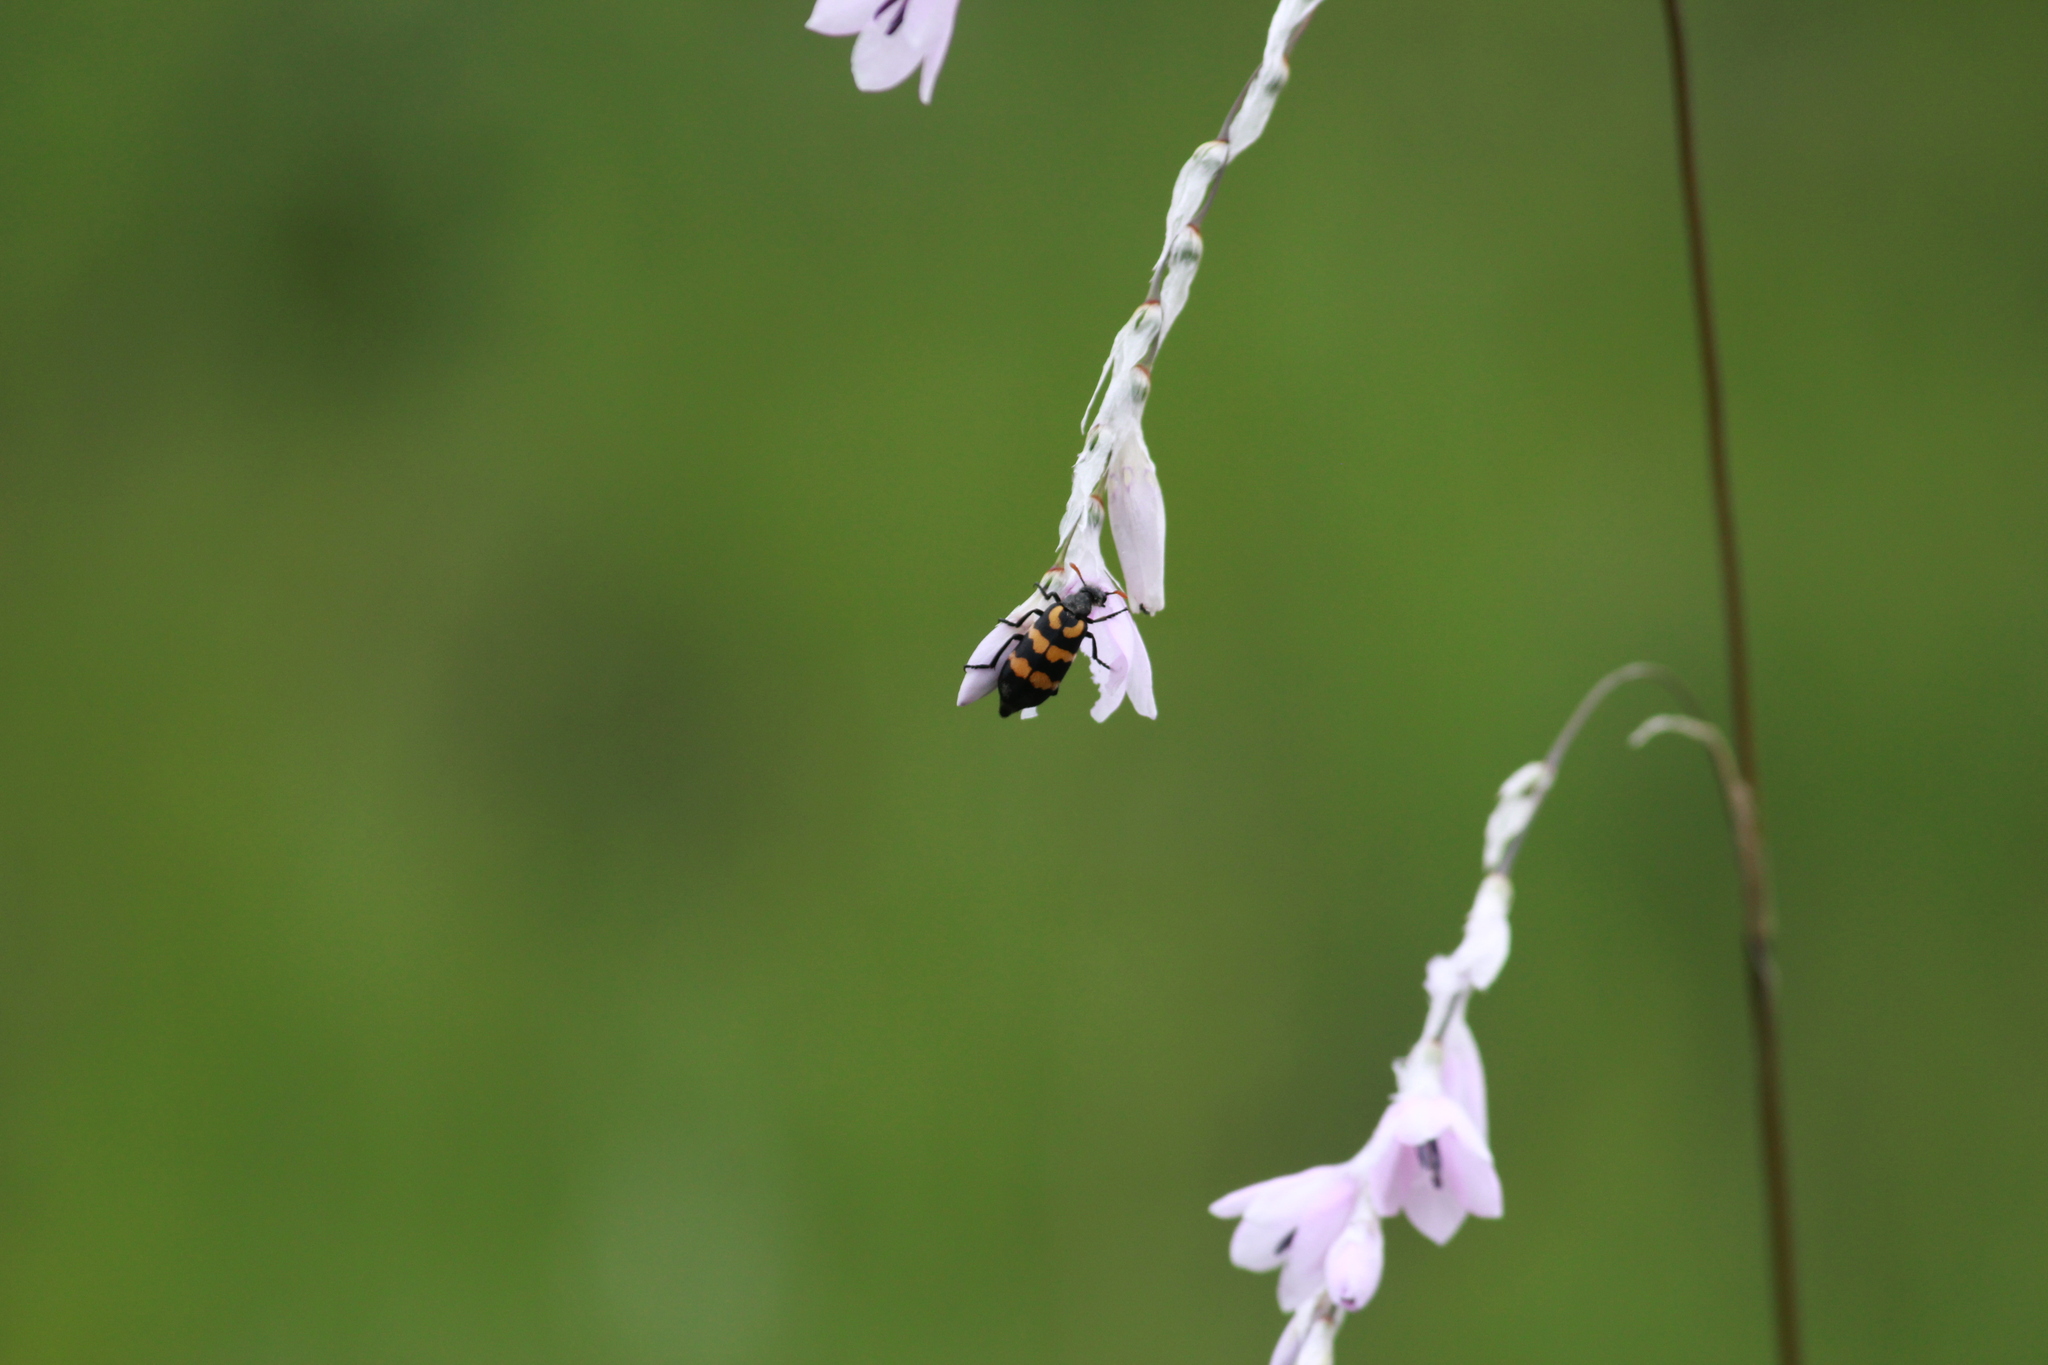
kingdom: Animalia
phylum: Arthropoda
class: Insecta
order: Coleoptera
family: Meloidae
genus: Meloe
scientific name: Meloe lunata
